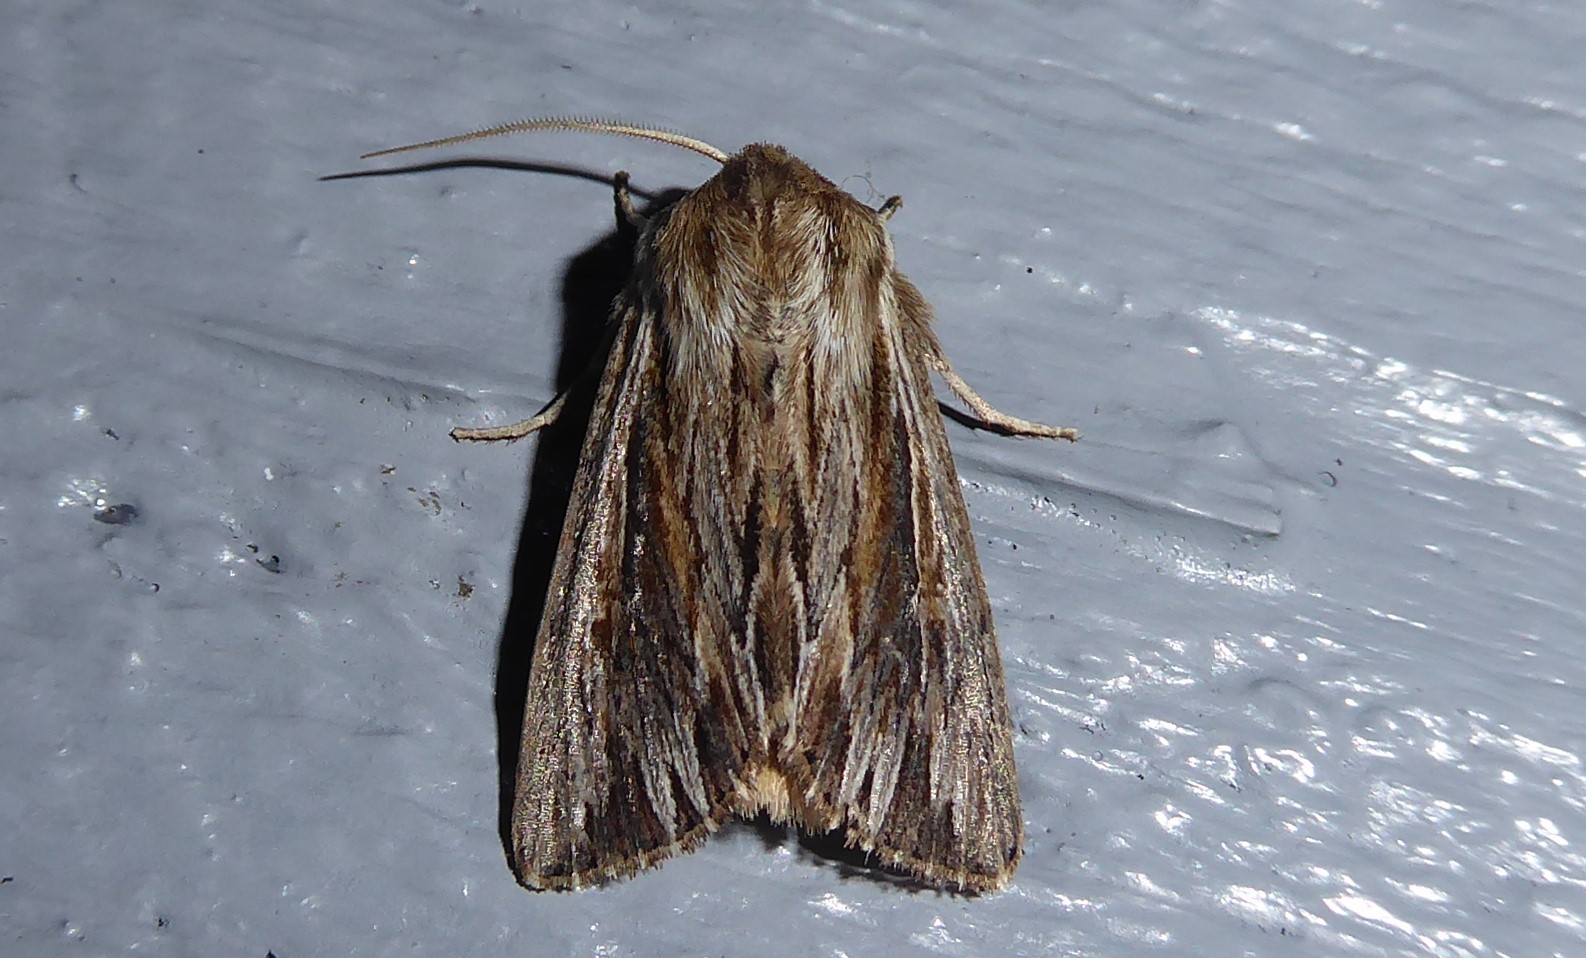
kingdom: Animalia
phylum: Arthropoda
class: Insecta
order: Lepidoptera
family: Noctuidae
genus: Persectania
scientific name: Persectania aversa
